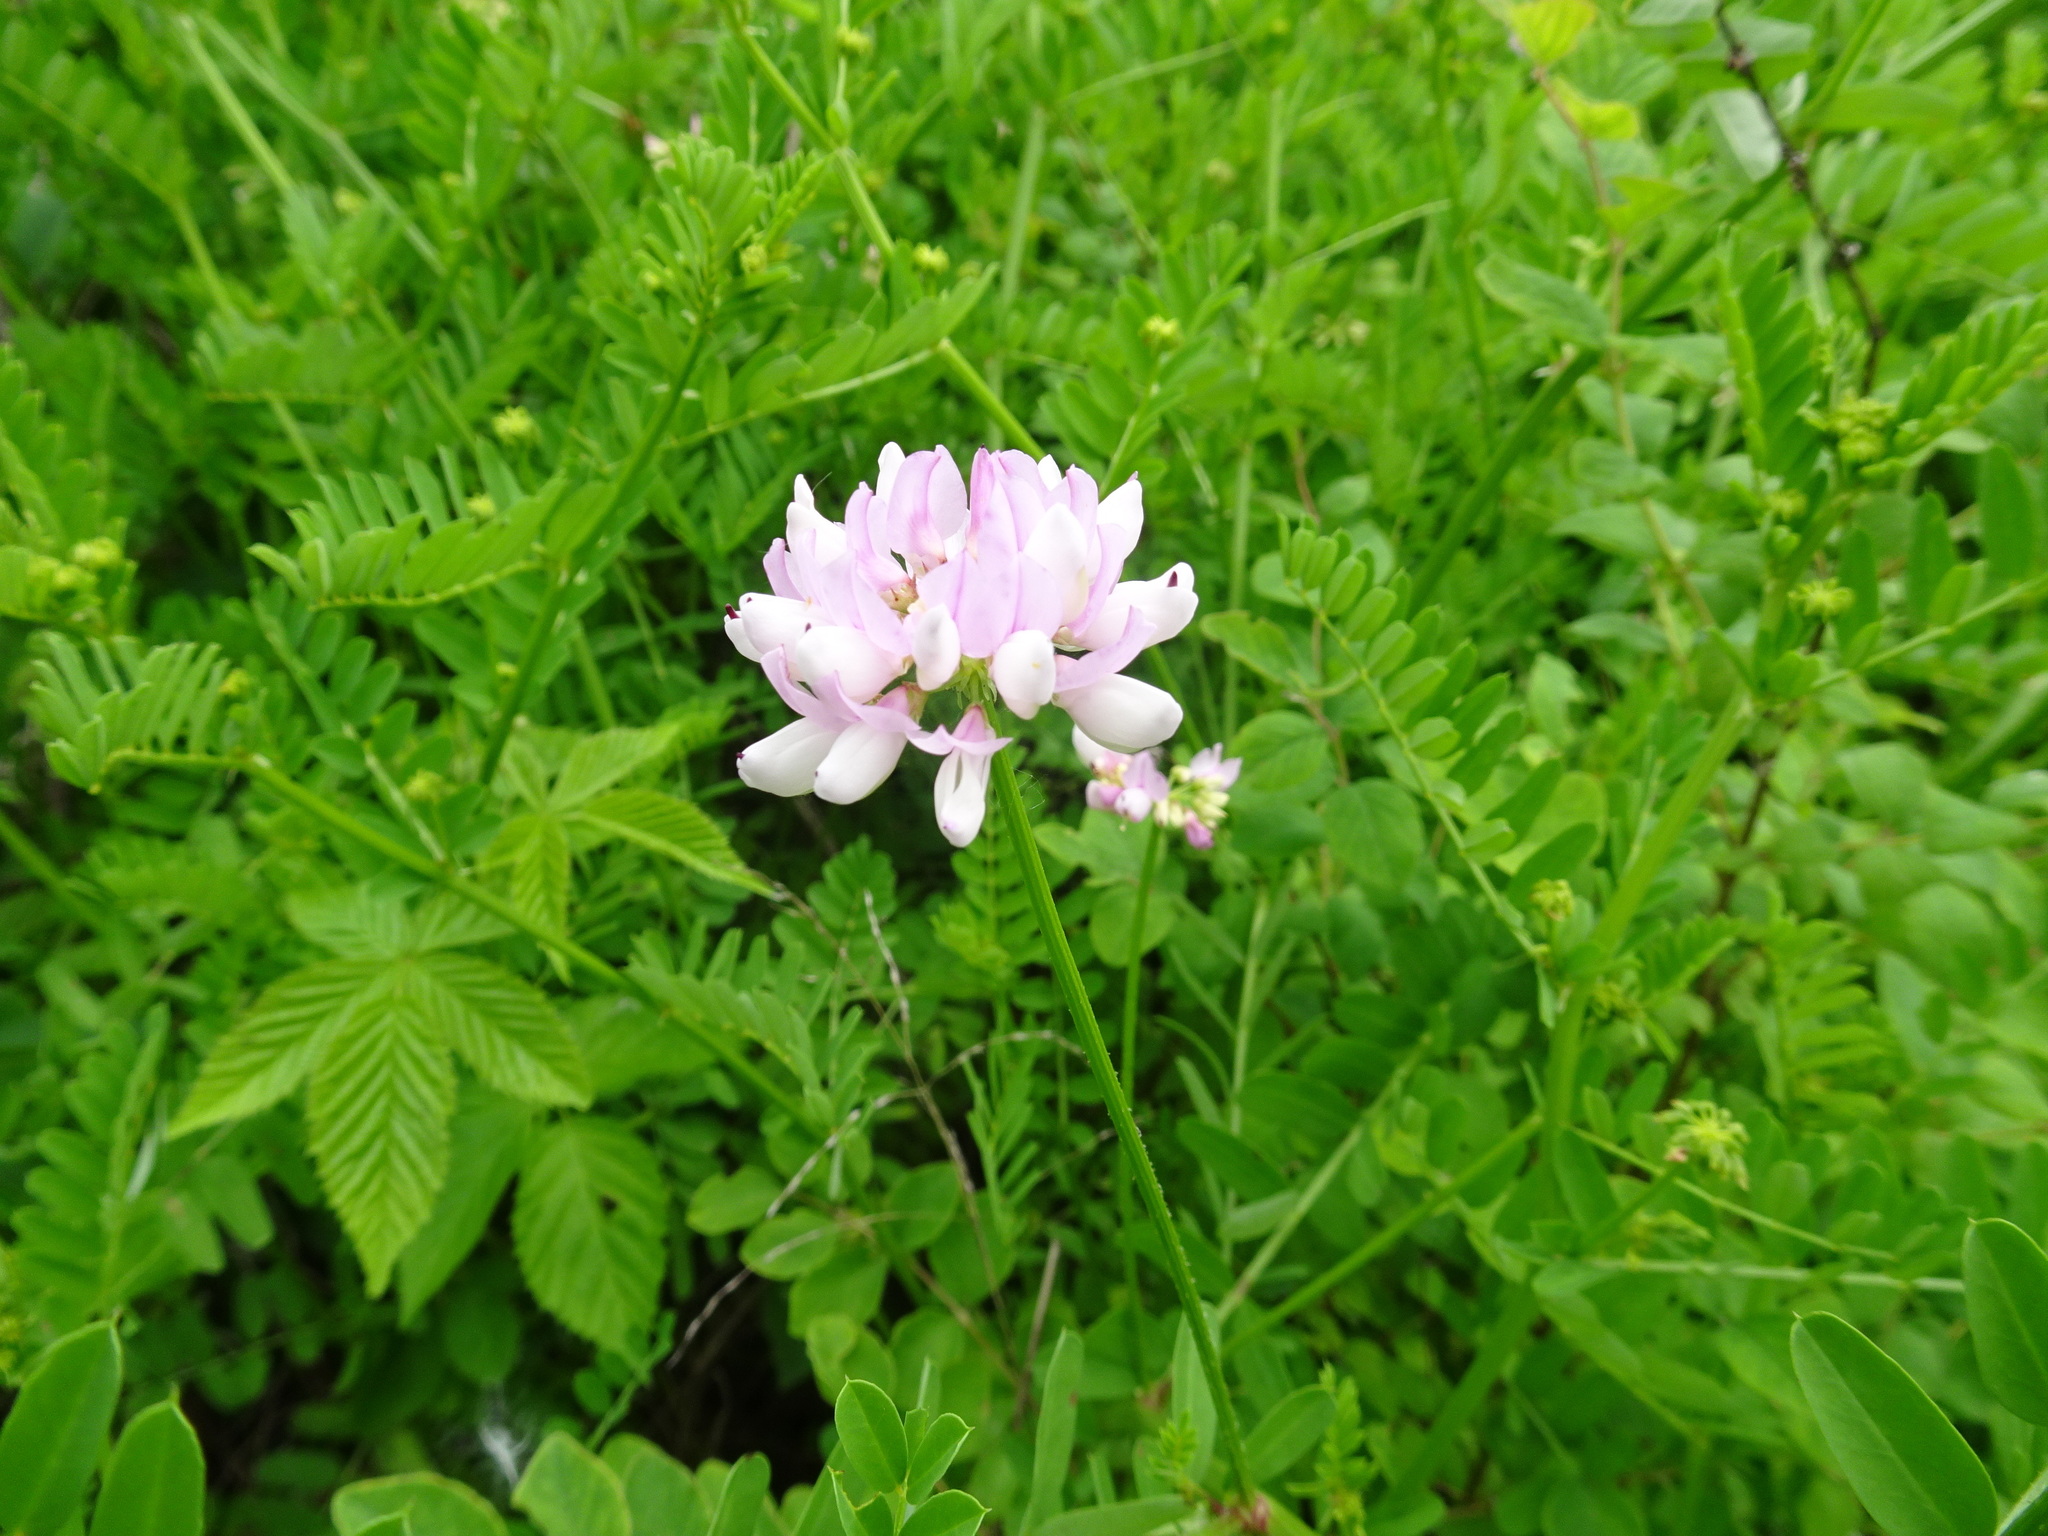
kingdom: Plantae
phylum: Tracheophyta
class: Magnoliopsida
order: Fabales
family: Fabaceae
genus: Coronilla
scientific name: Coronilla varia
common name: Crownvetch
